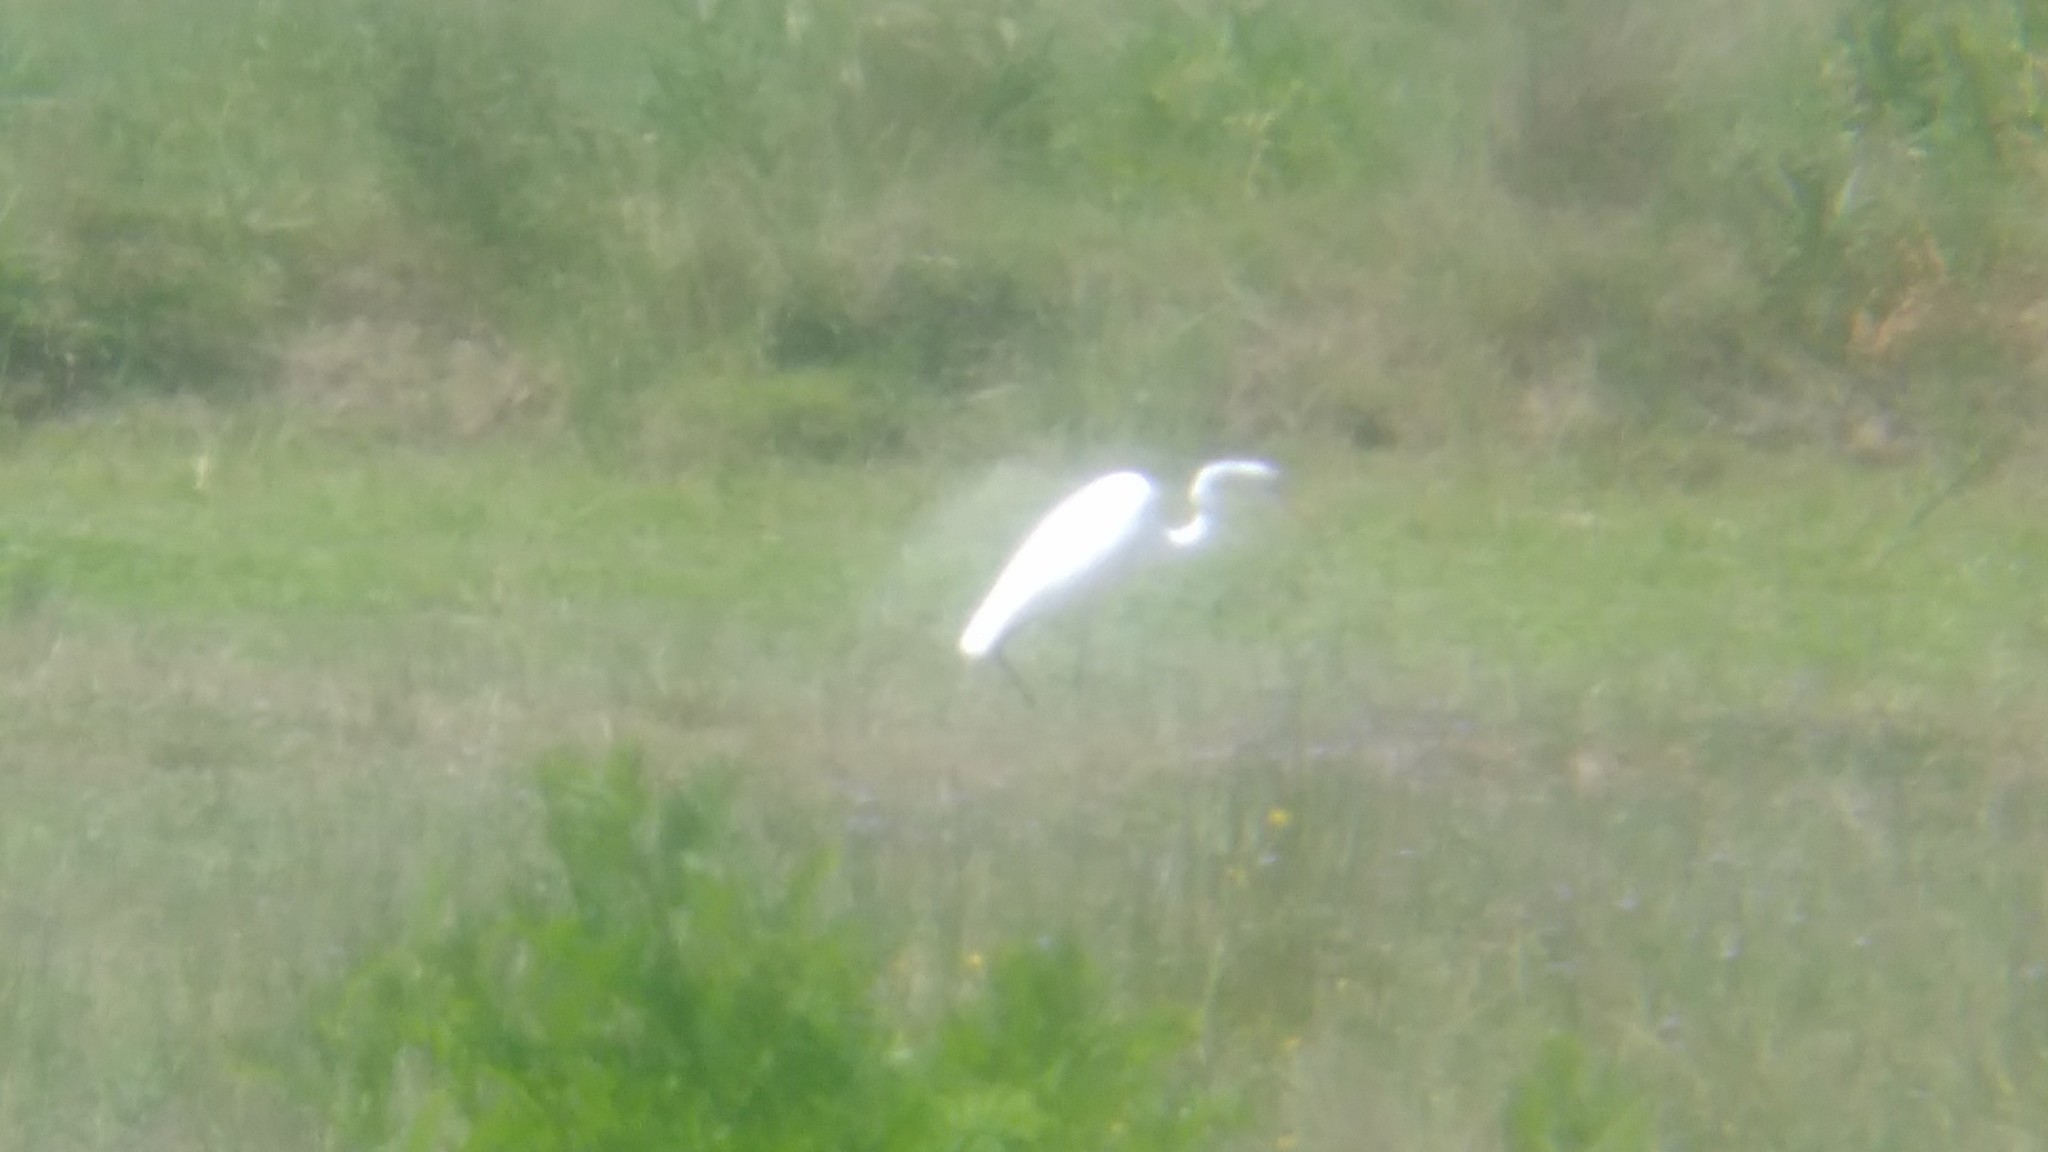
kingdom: Animalia
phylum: Chordata
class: Aves
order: Pelecaniformes
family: Ardeidae
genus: Ardea
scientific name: Ardea alba
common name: Great egret
